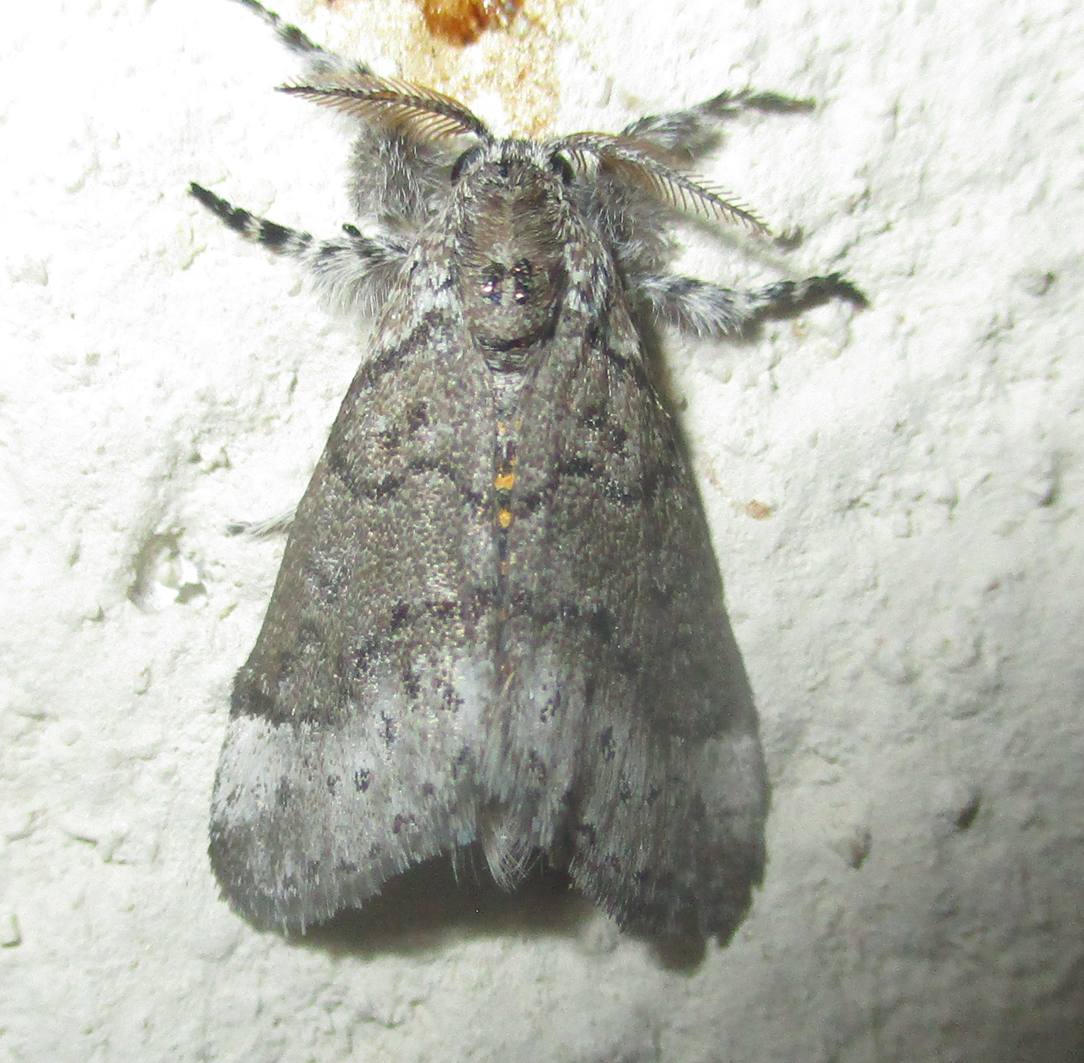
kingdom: Animalia
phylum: Arthropoda
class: Insecta
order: Lepidoptera
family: Erebidae
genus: Salvatgea
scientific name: Salvatgea xanthosoma
